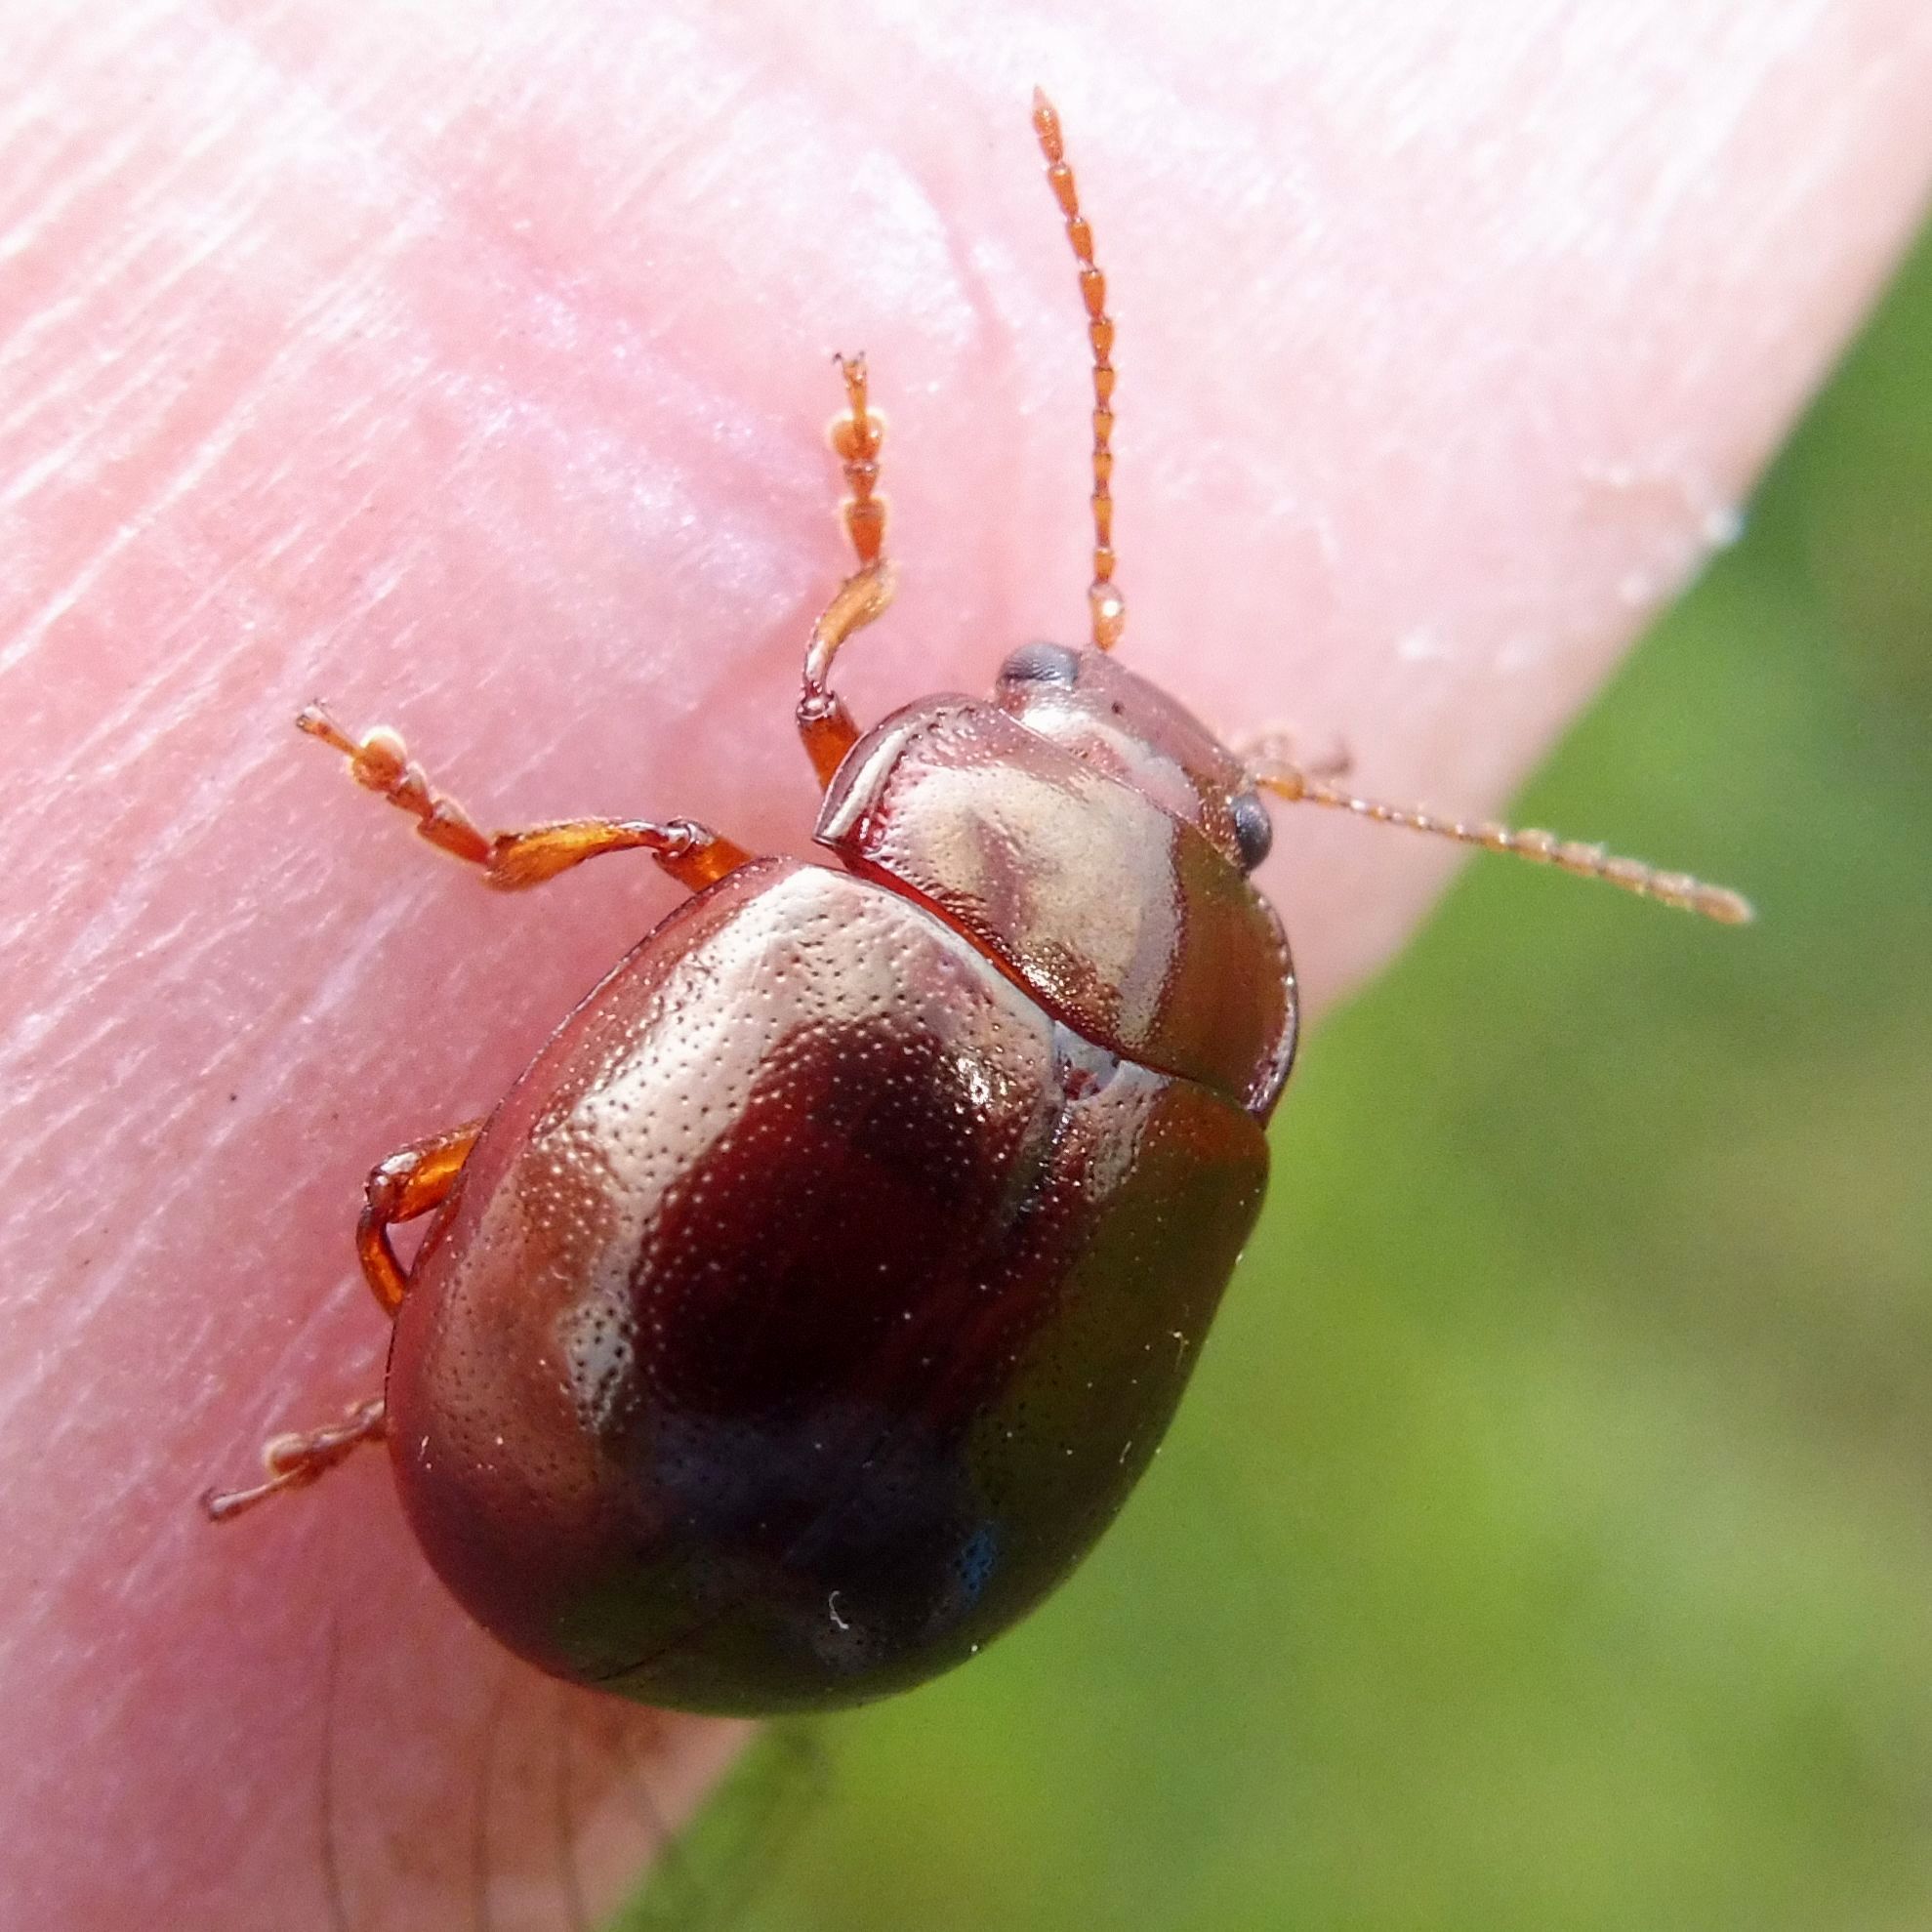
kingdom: Animalia
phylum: Arthropoda
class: Insecta
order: Coleoptera
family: Chrysomelidae
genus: Chrysolina
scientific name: Chrysolina staphylaea
